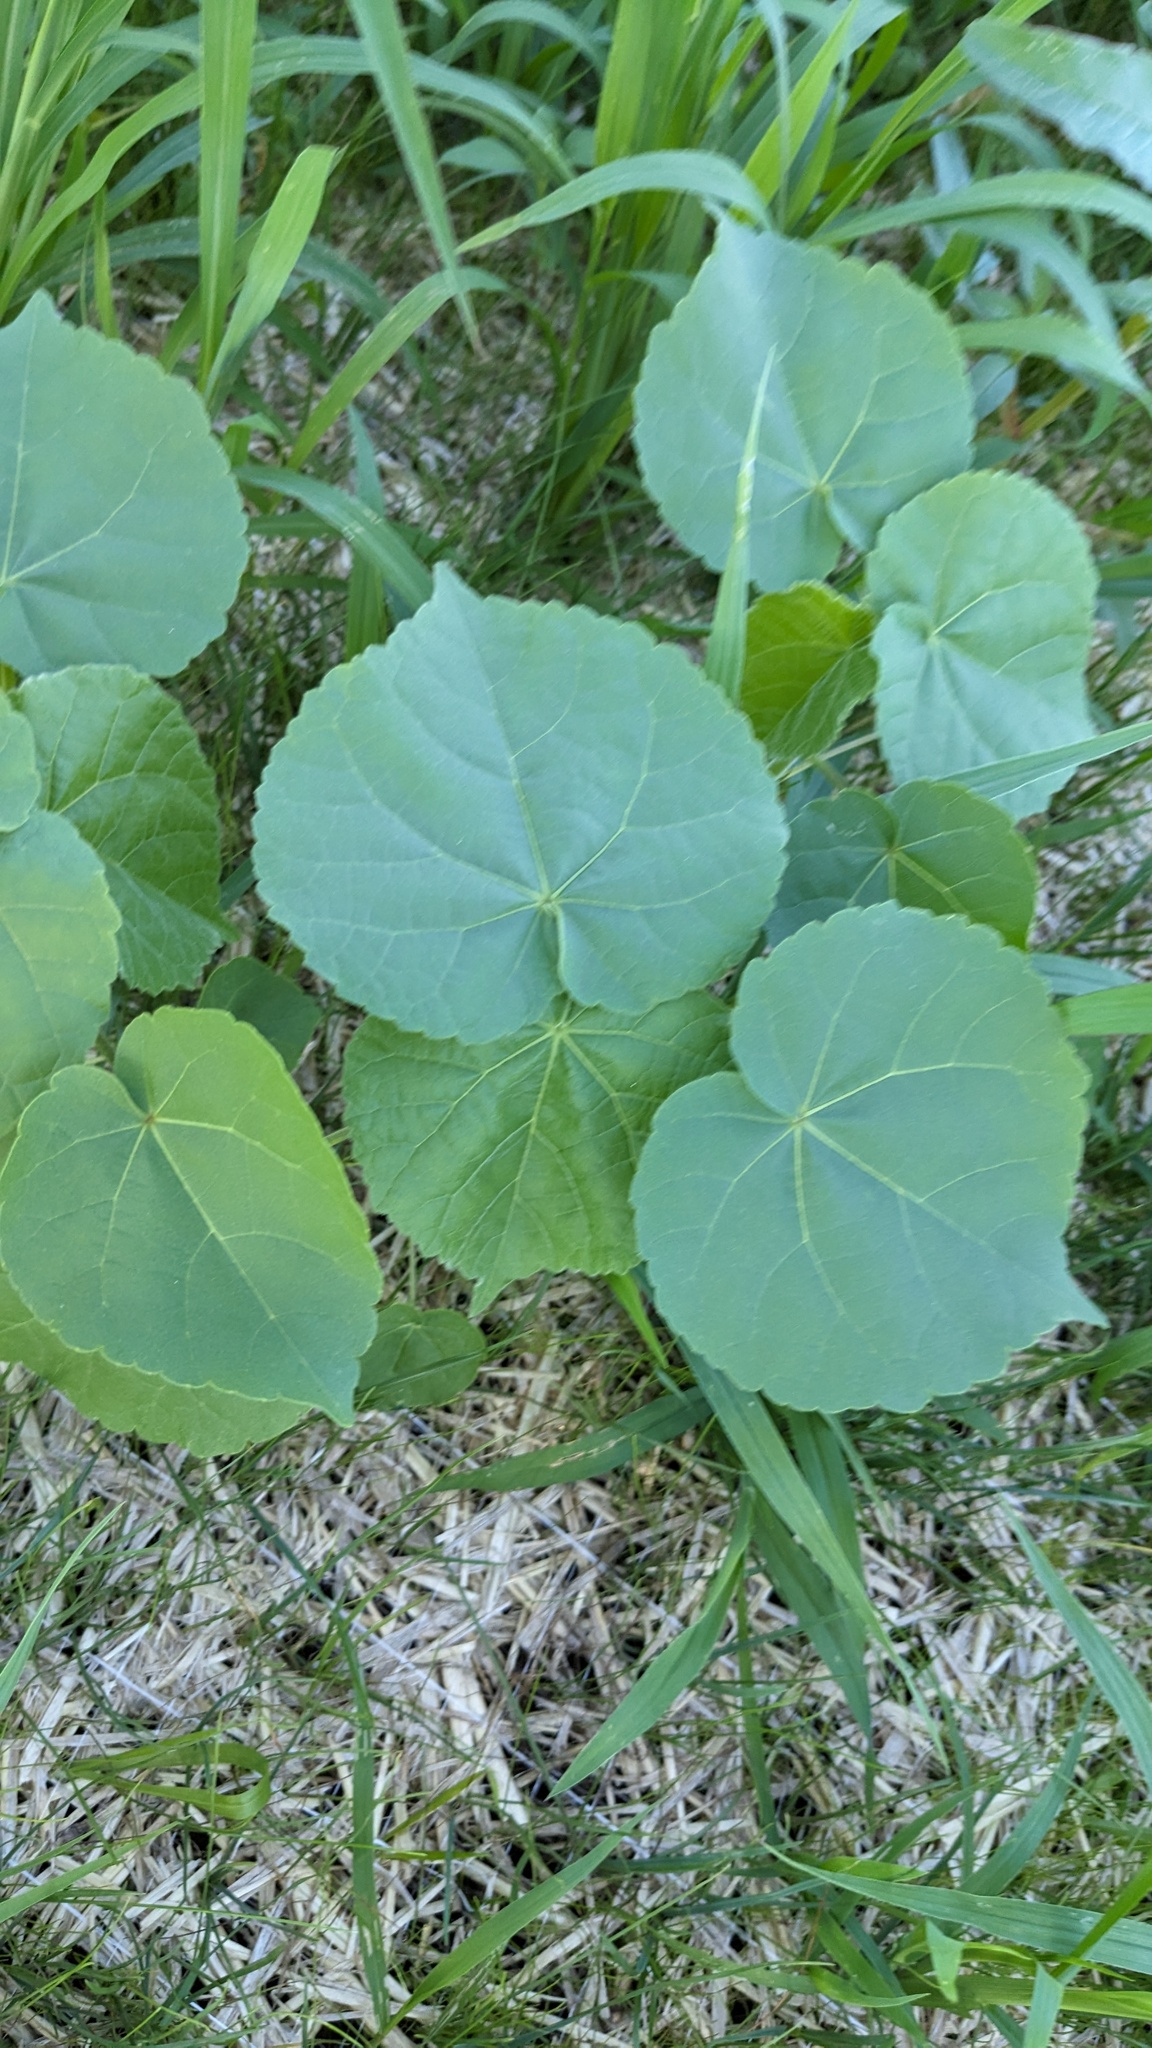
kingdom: Plantae
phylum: Tracheophyta
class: Magnoliopsida
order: Malvales
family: Malvaceae
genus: Abutilon
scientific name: Abutilon theophrasti
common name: Velvetleaf
